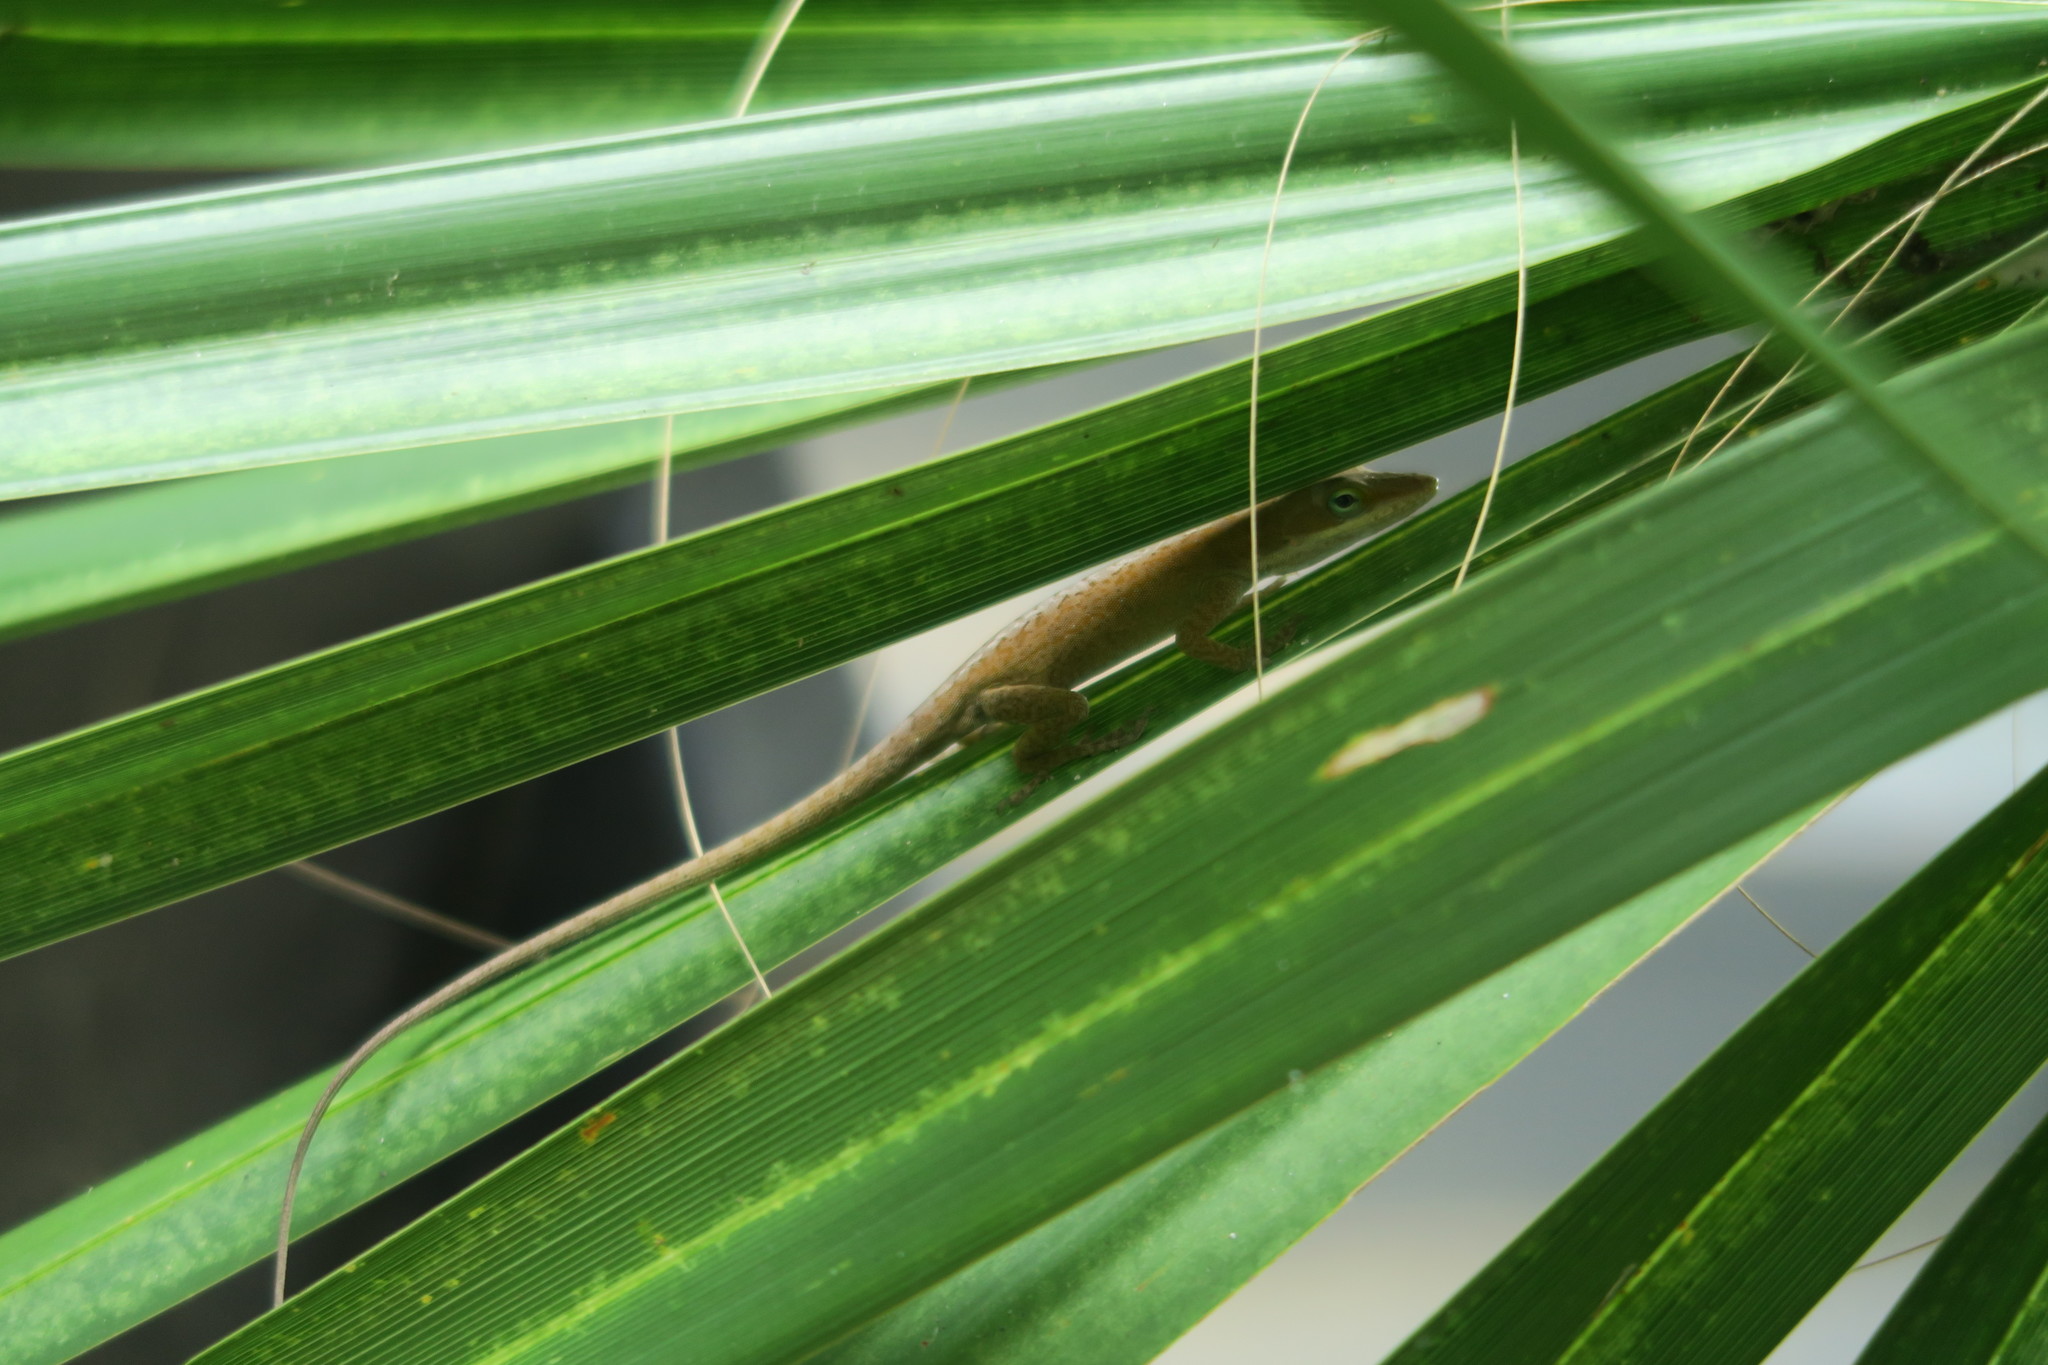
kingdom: Animalia
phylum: Chordata
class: Squamata
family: Dactyloidae
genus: Anolis
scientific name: Anolis carolinensis
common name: Green anole
